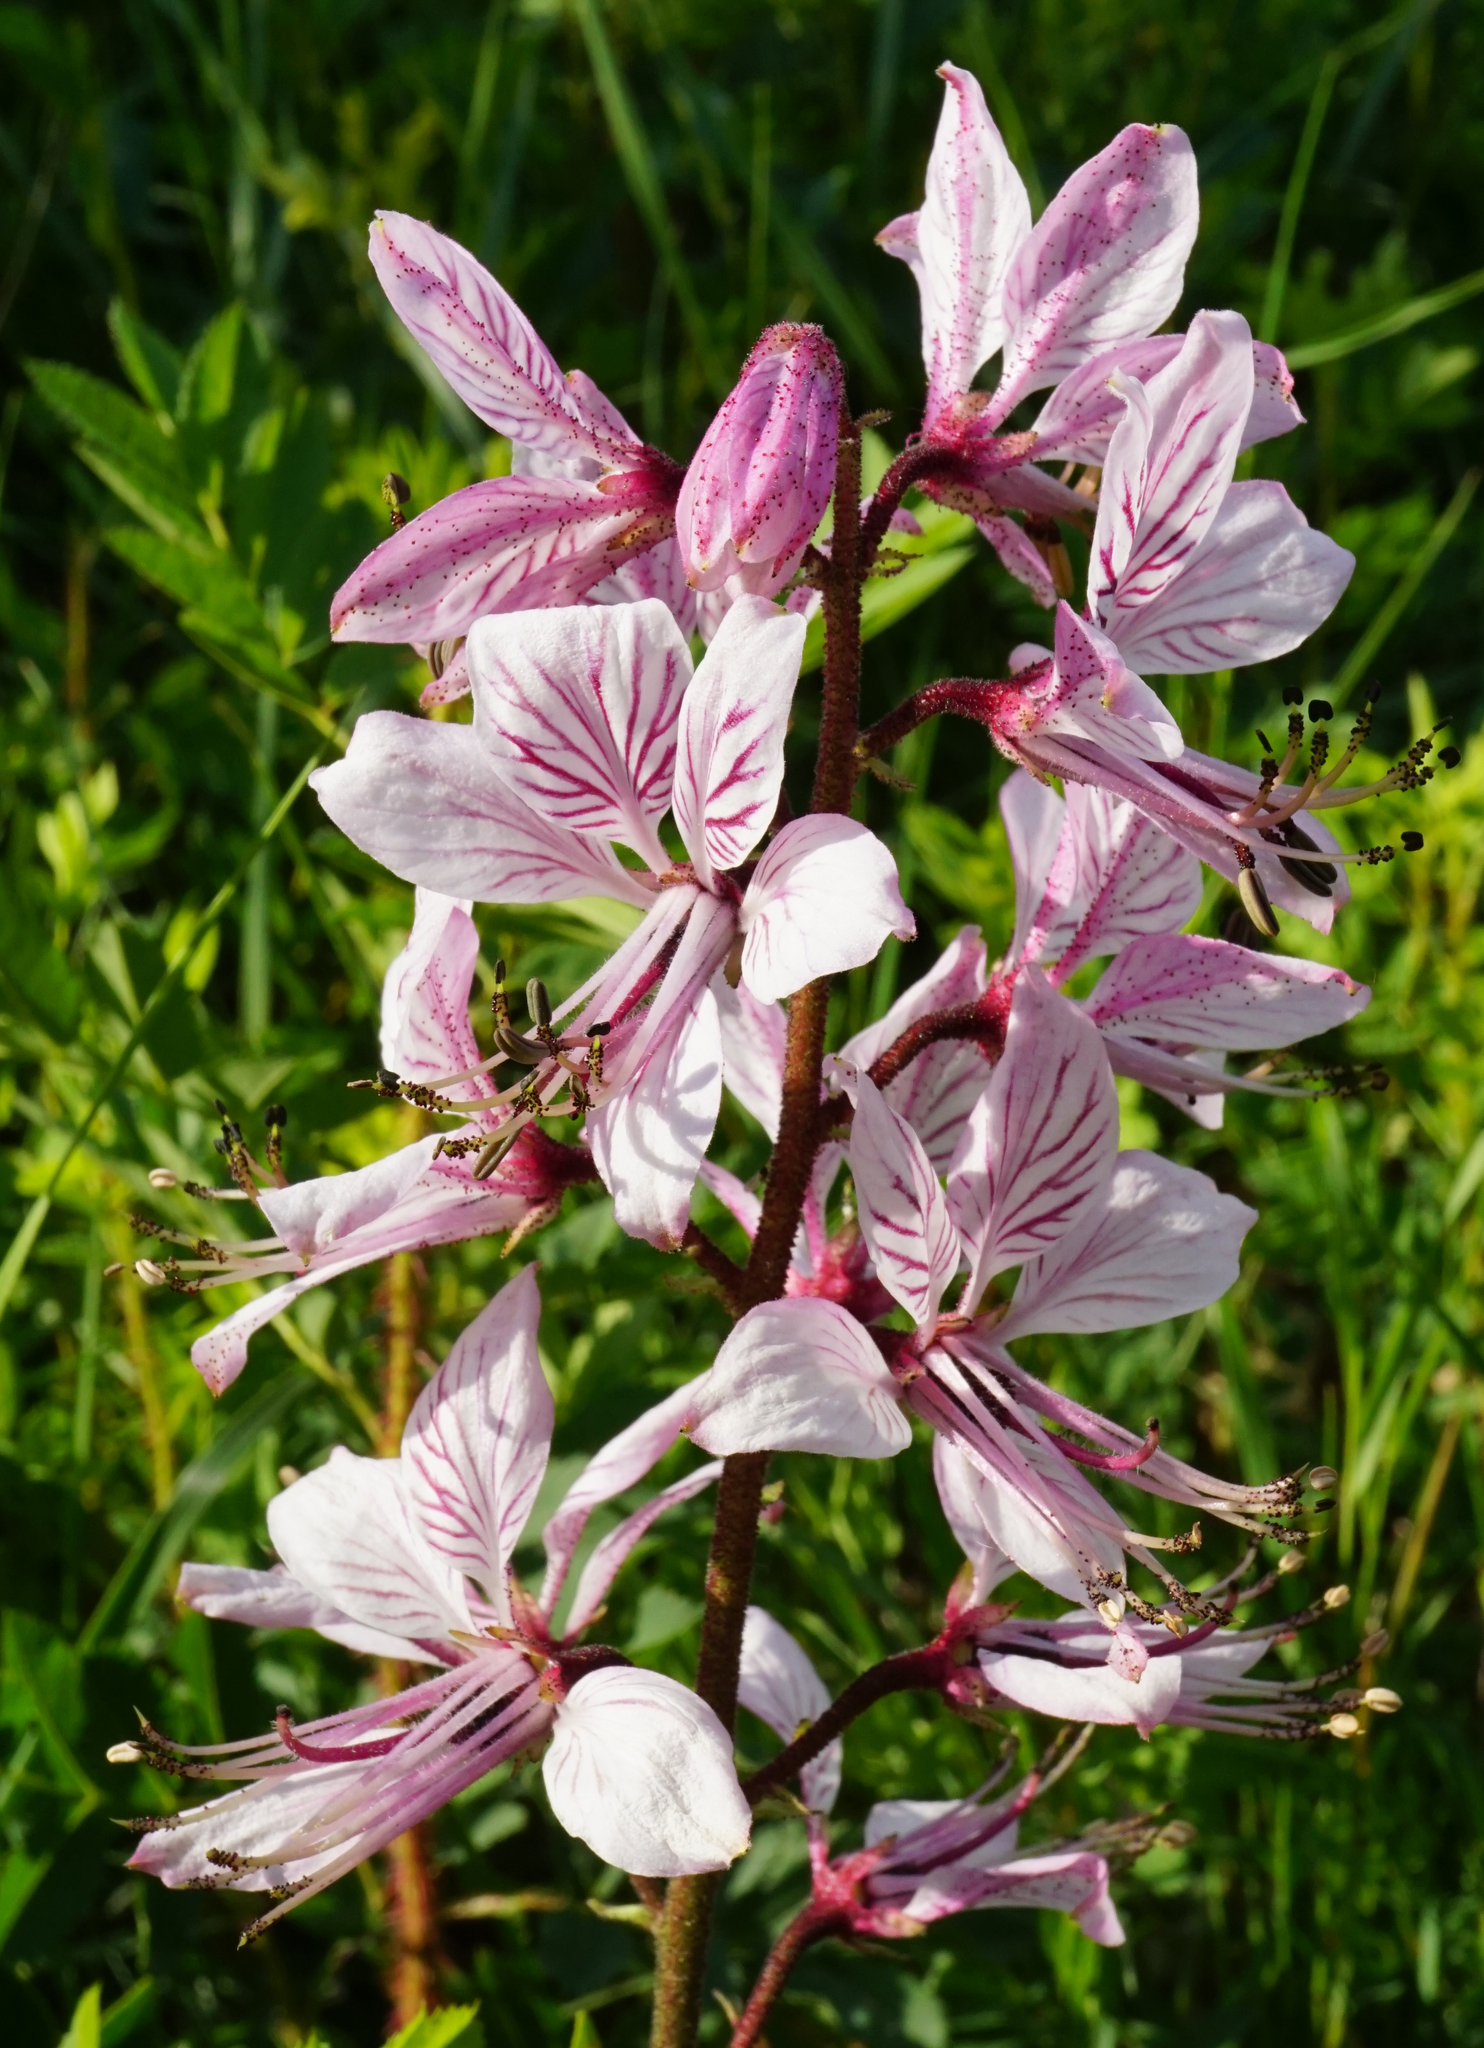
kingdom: Plantae
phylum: Tracheophyta
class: Magnoliopsida
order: Sapindales
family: Rutaceae
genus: Dictamnus
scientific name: Dictamnus albus
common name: Gasplant
